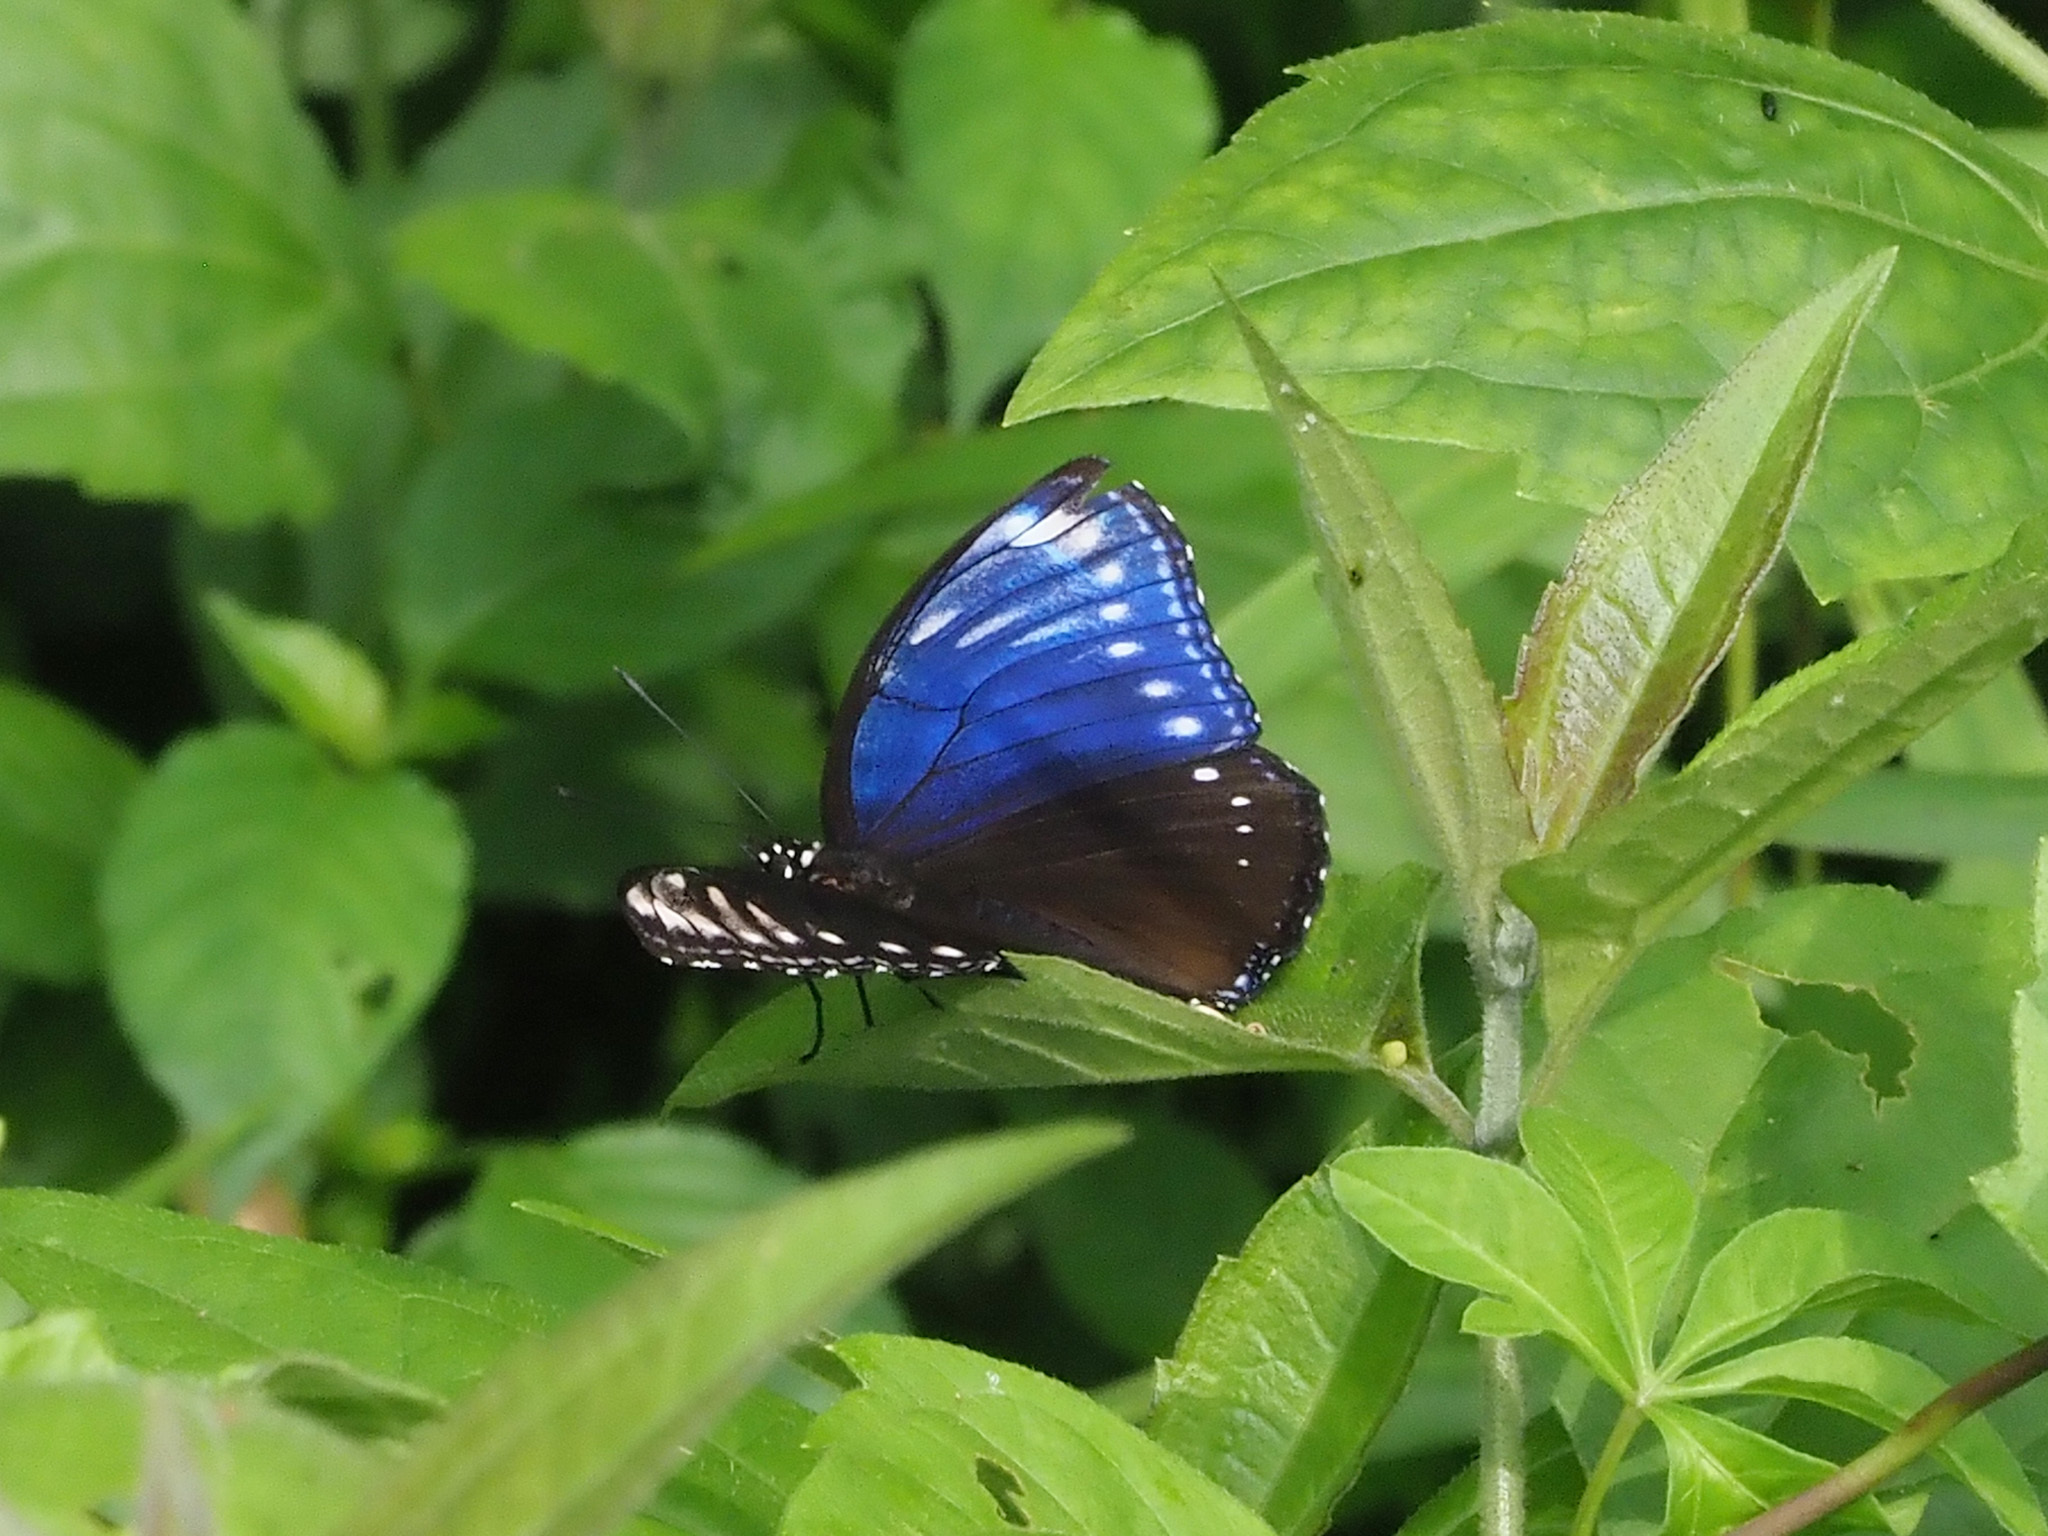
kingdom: Animalia
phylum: Arthropoda
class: Insecta
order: Lepidoptera
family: Nymphalidae
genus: Hypolimnas
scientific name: Hypolimnas anomala
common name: Malayan eggfly
